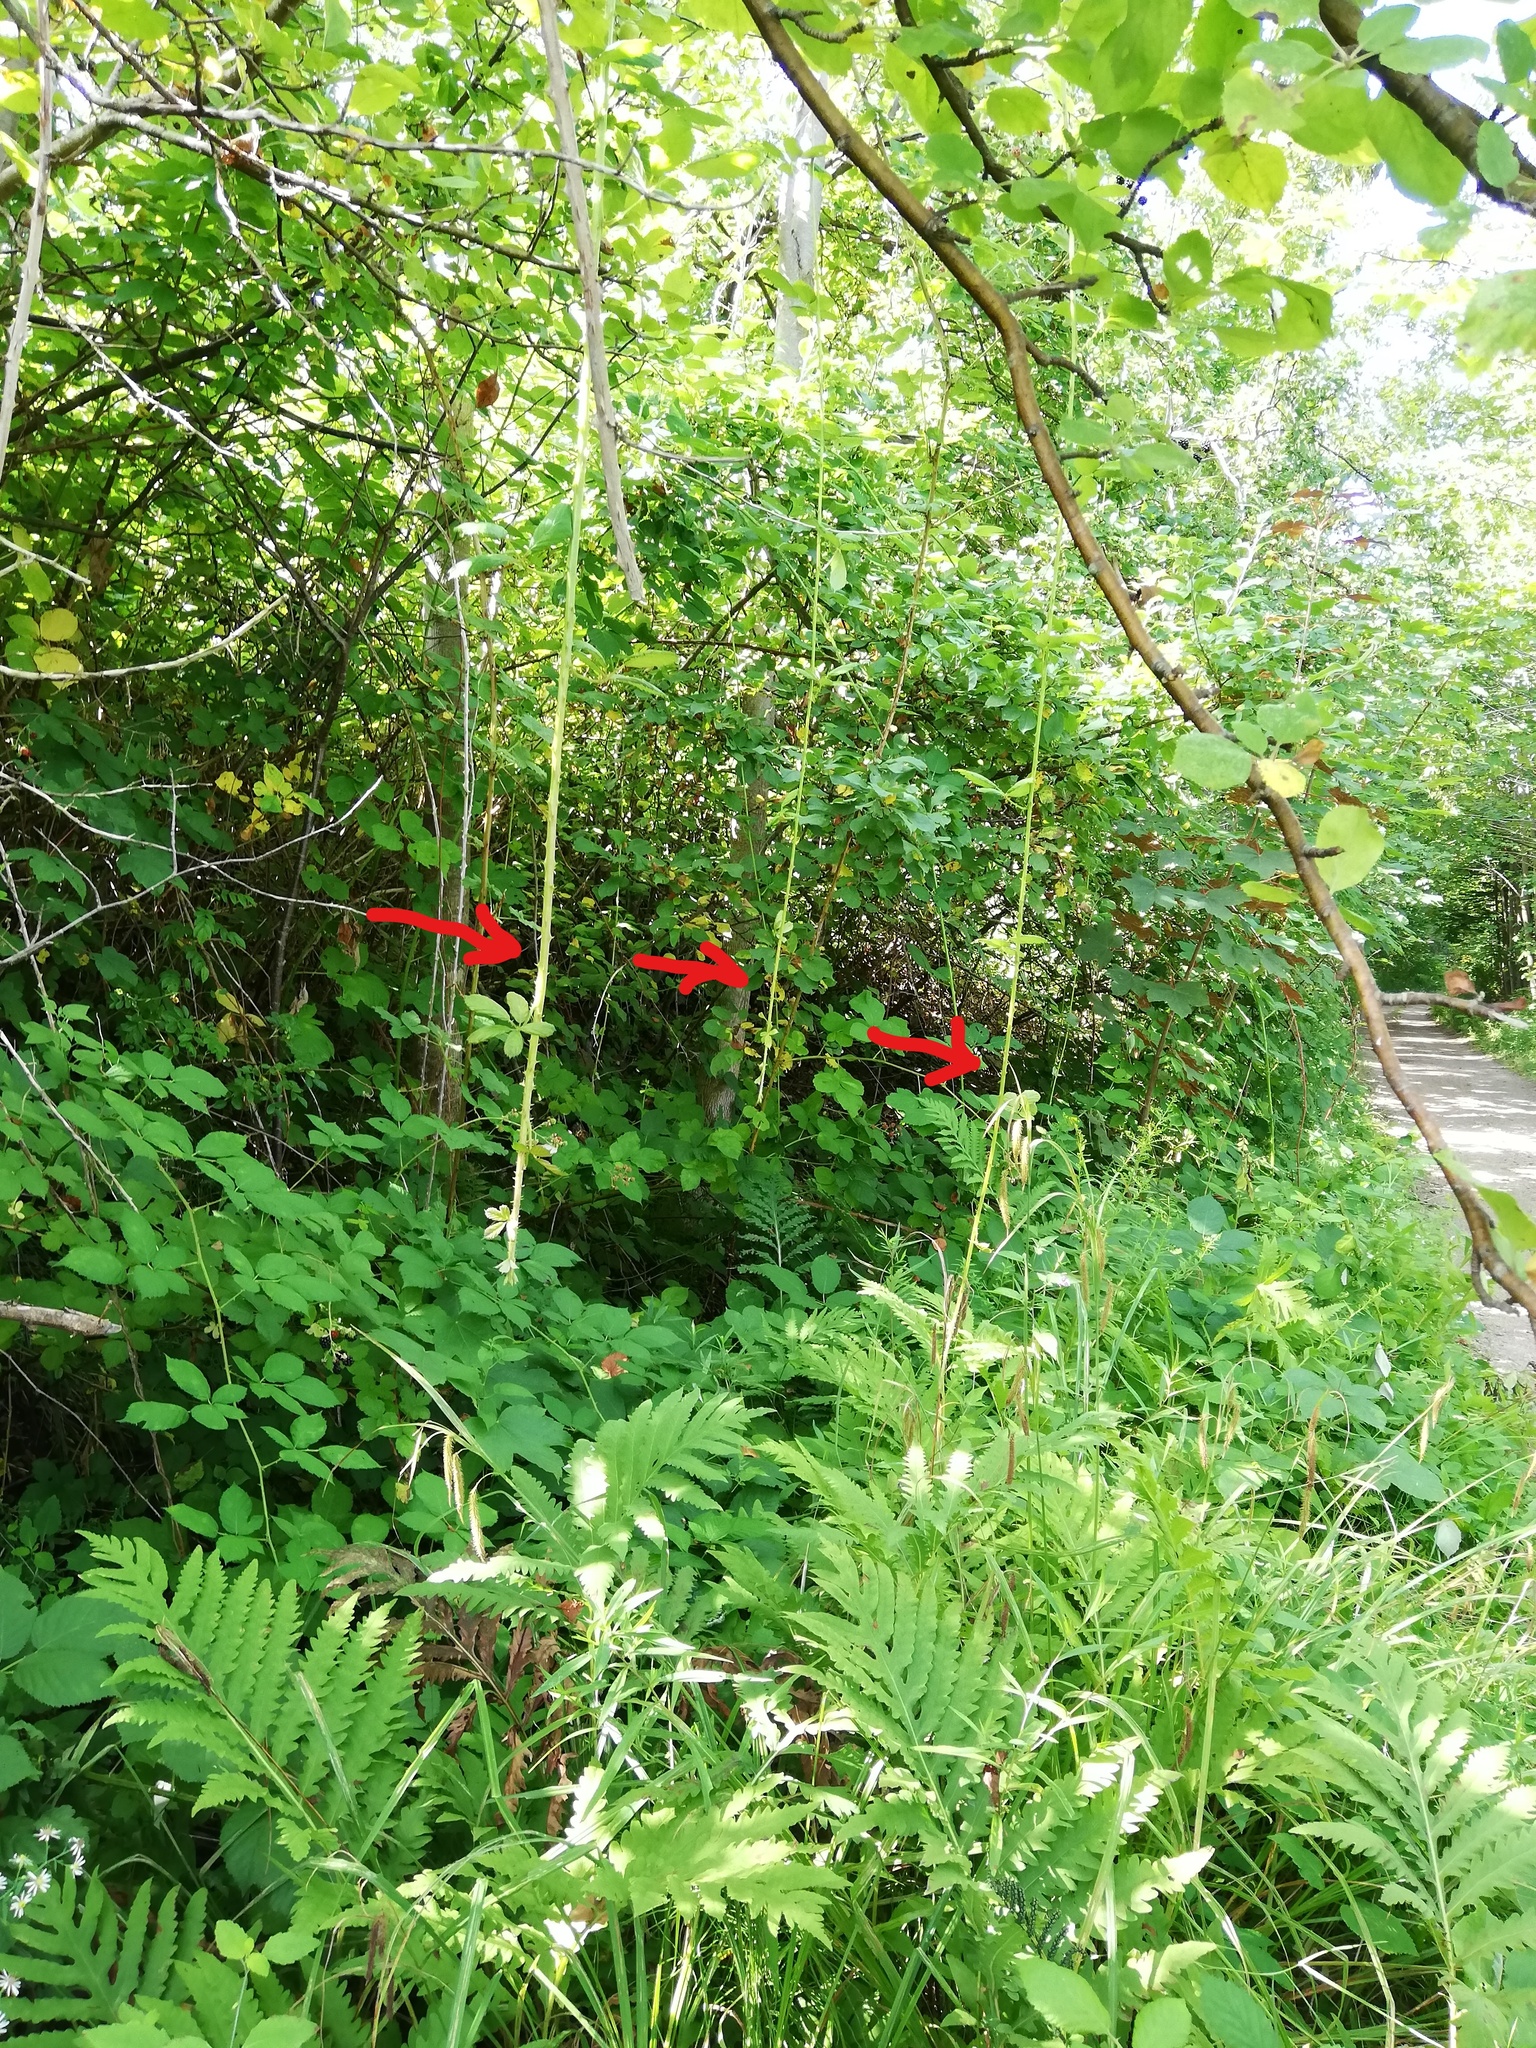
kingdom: Plantae
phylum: Tracheophyta
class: Magnoliopsida
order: Rosales
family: Rosaceae
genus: Rubus
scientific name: Rubus bifrons
